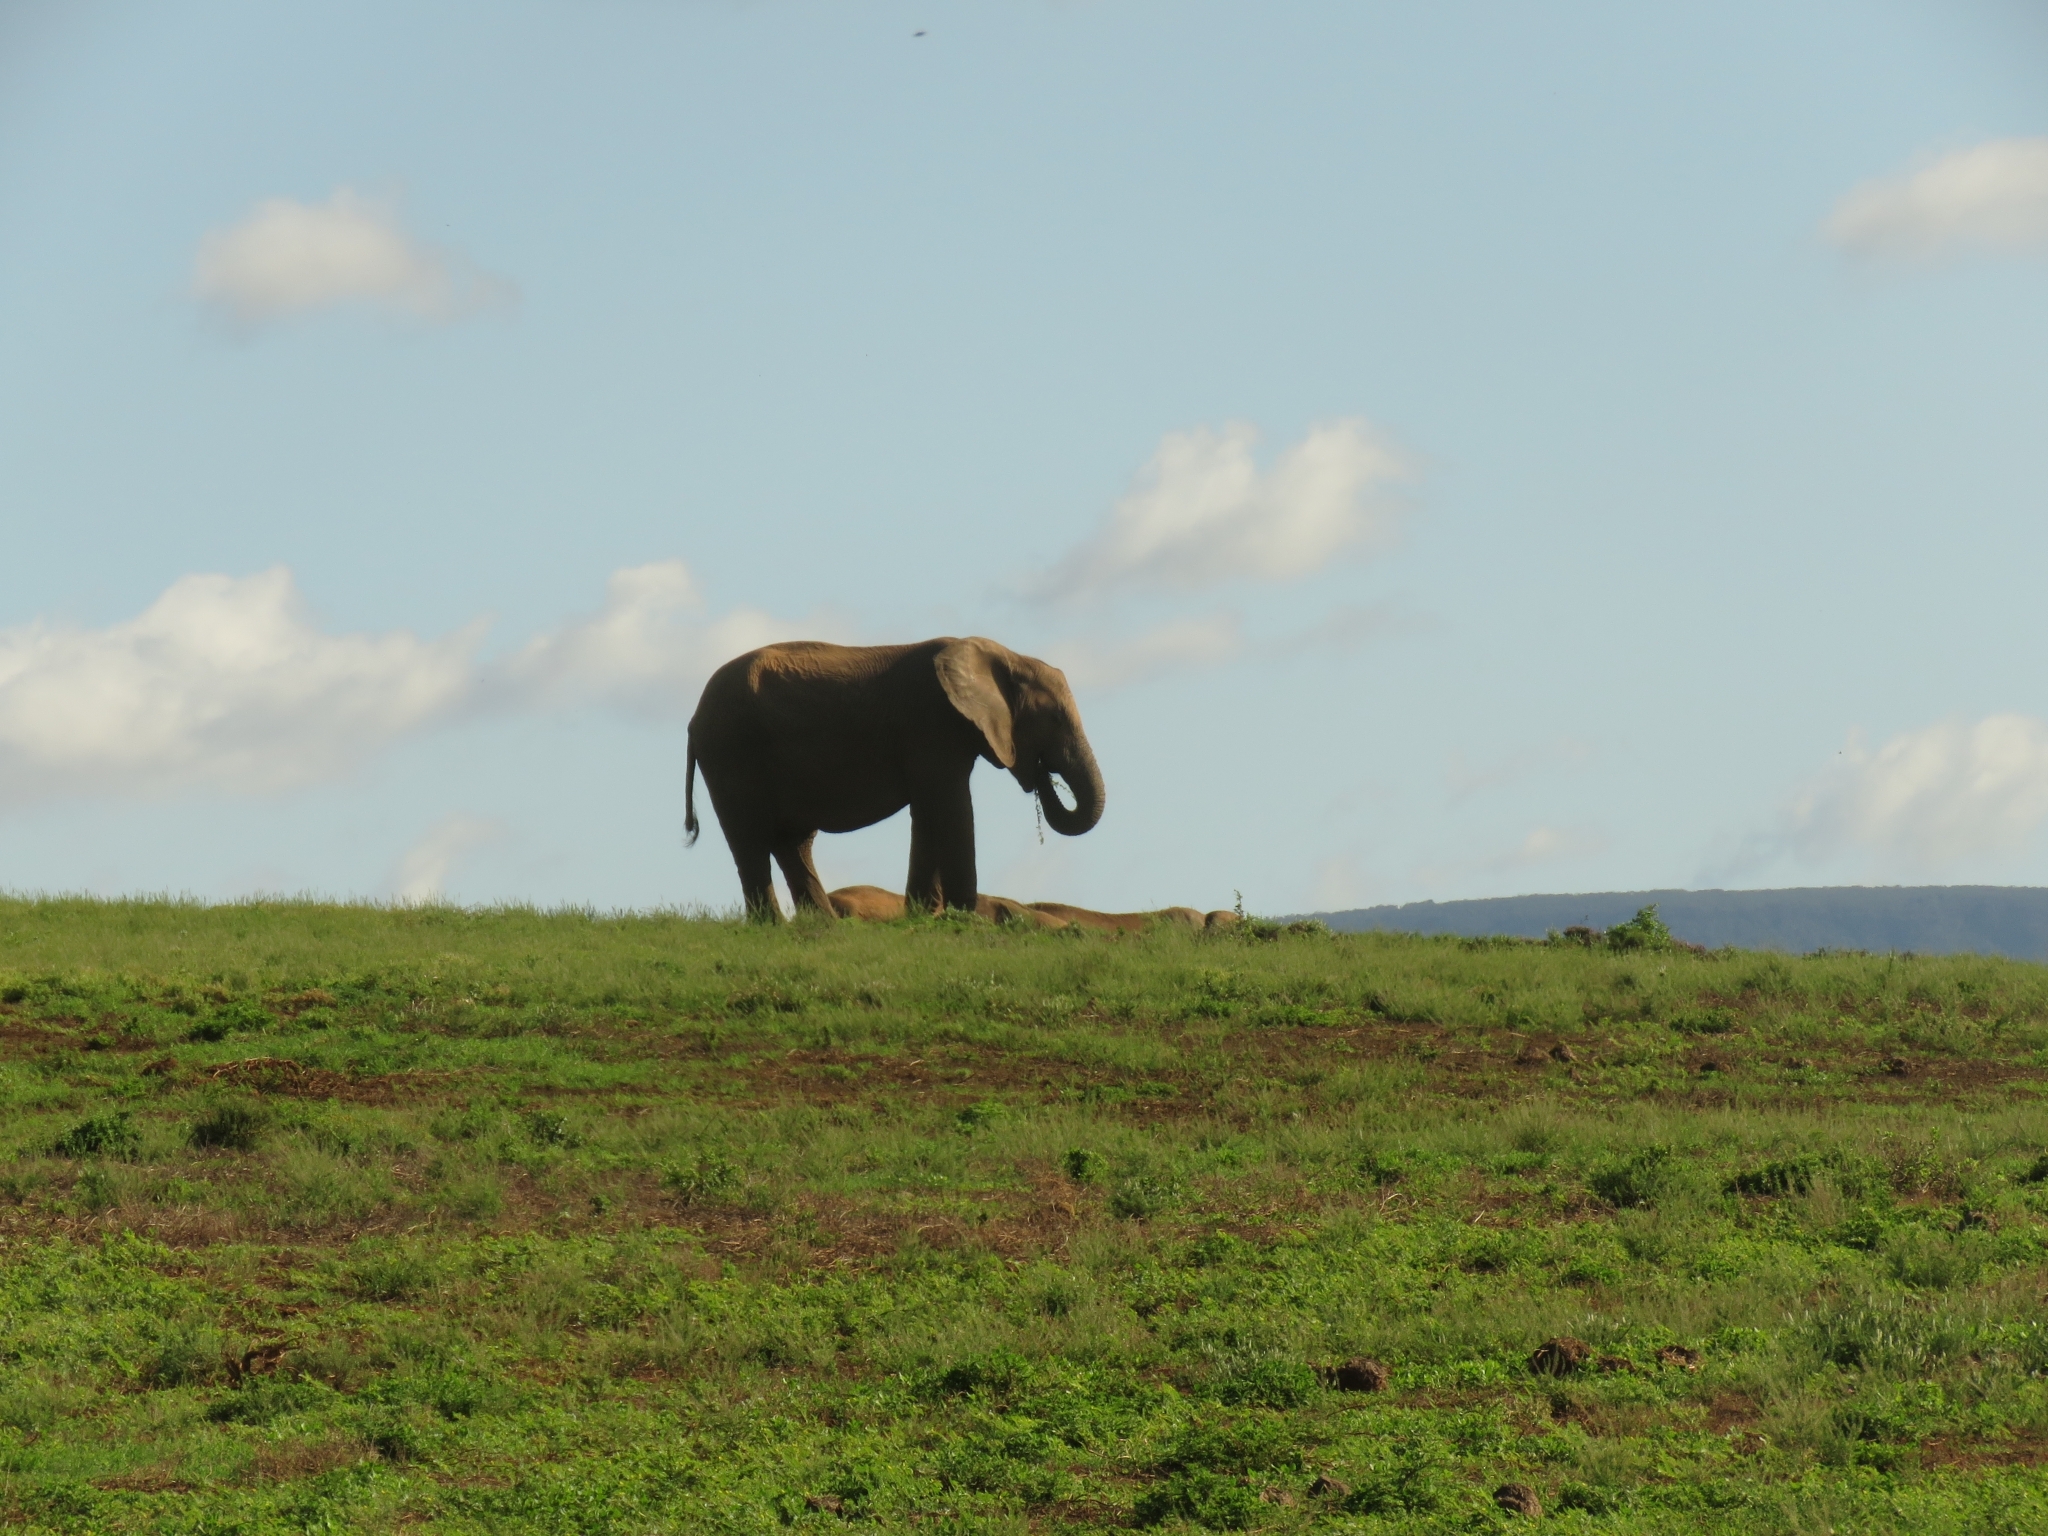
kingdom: Animalia
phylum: Chordata
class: Mammalia
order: Proboscidea
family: Elephantidae
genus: Loxodonta
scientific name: Loxodonta africana
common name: African elephant
